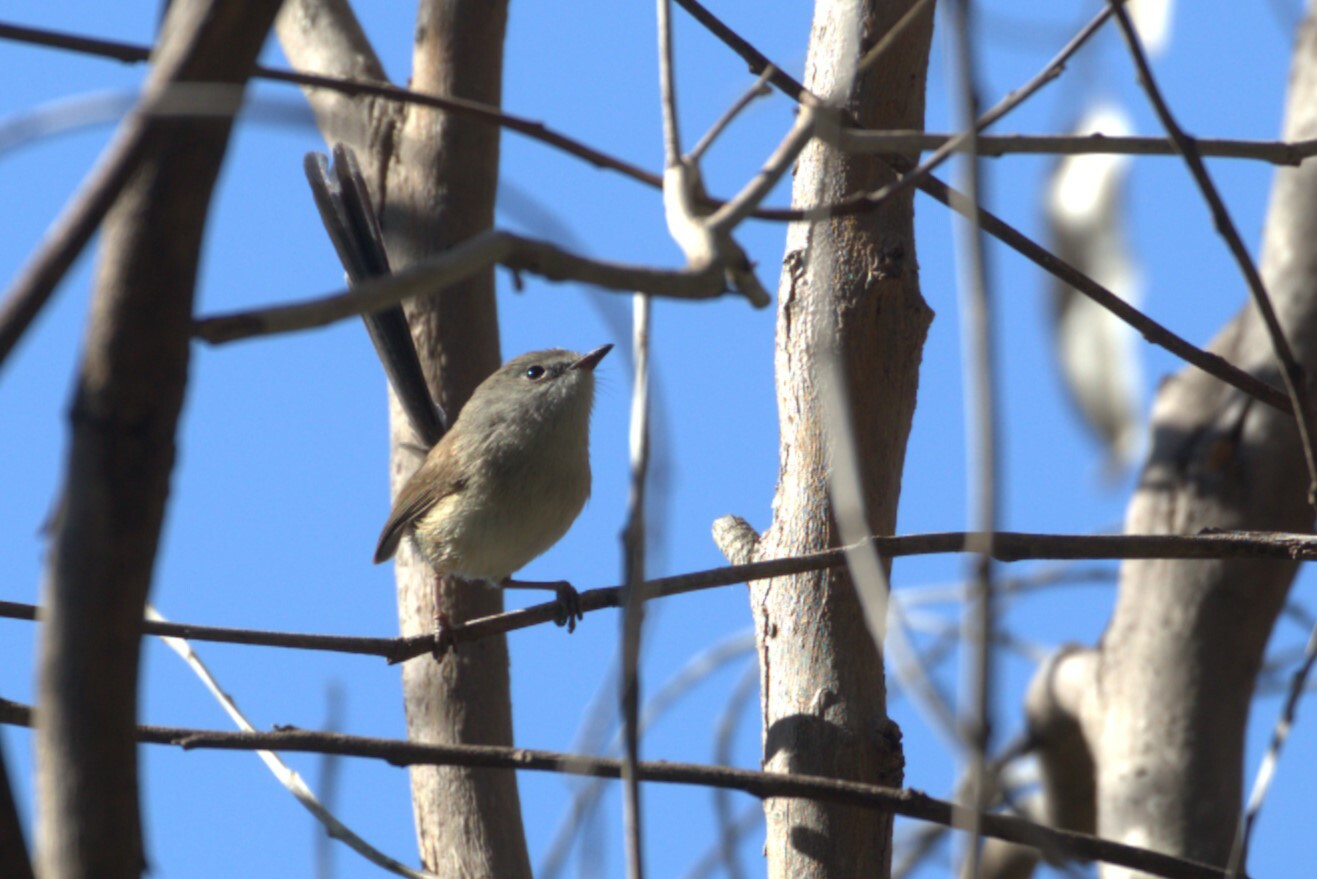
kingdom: Animalia
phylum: Chordata
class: Aves
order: Passeriformes
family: Maluridae
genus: Malurus
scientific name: Malurus lamberti
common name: Variegated fairywren
